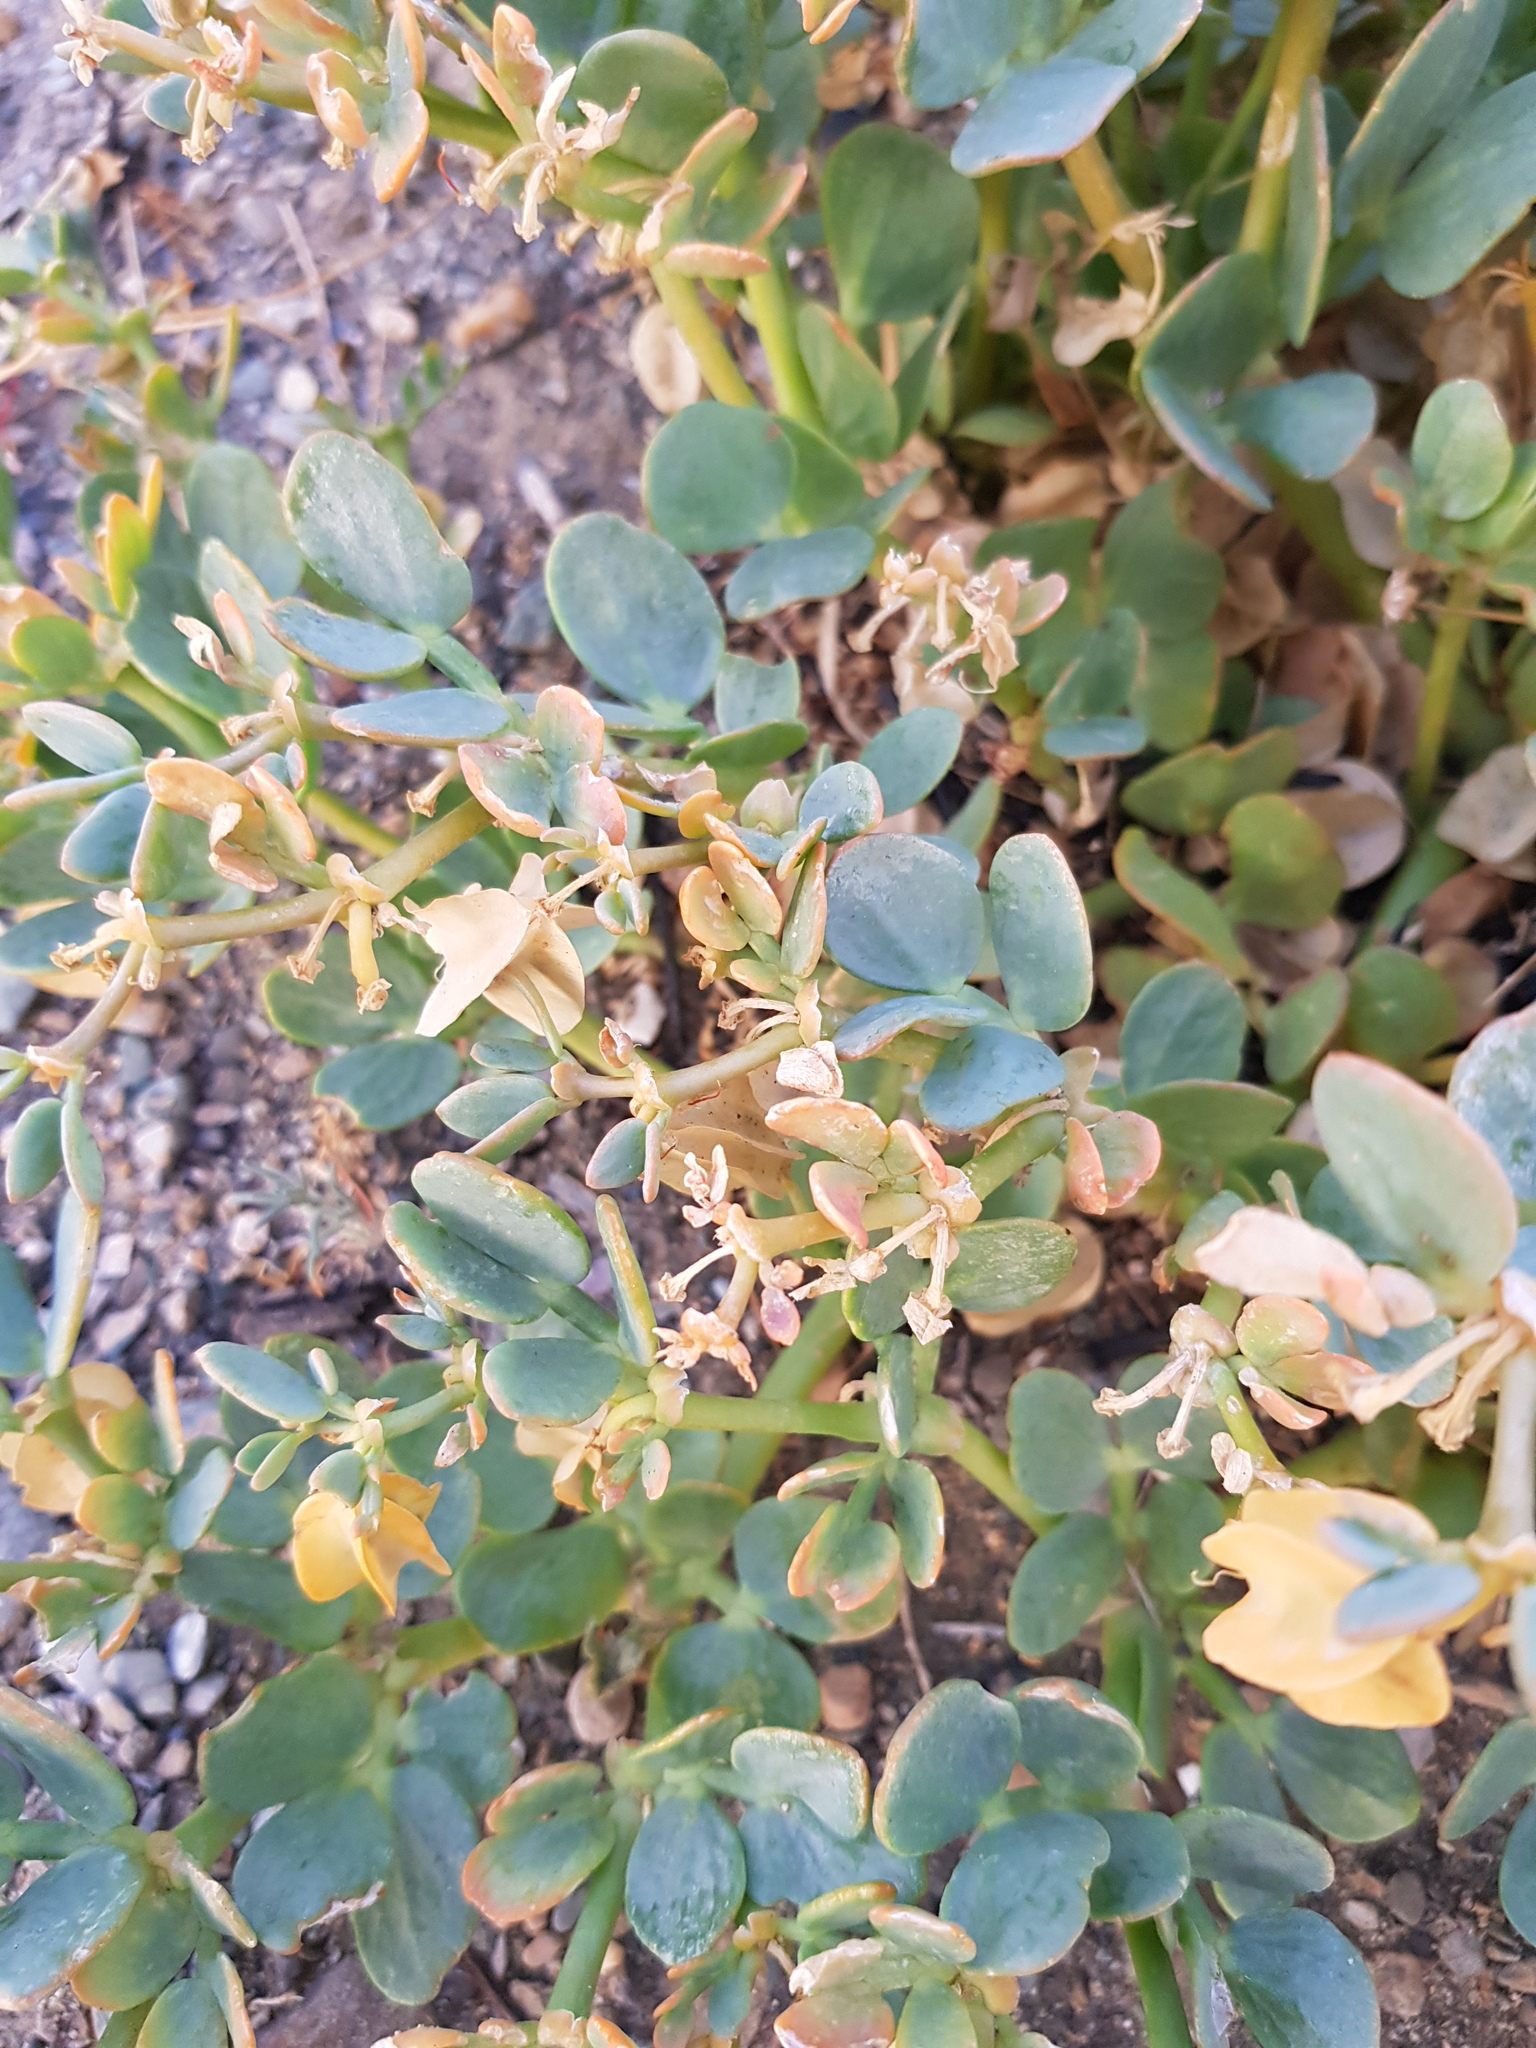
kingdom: Plantae
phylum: Tracheophyta
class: Magnoliopsida
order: Zygophyllales
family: Zygophyllaceae
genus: Zygophyllum
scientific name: Zygophyllum potaninii
